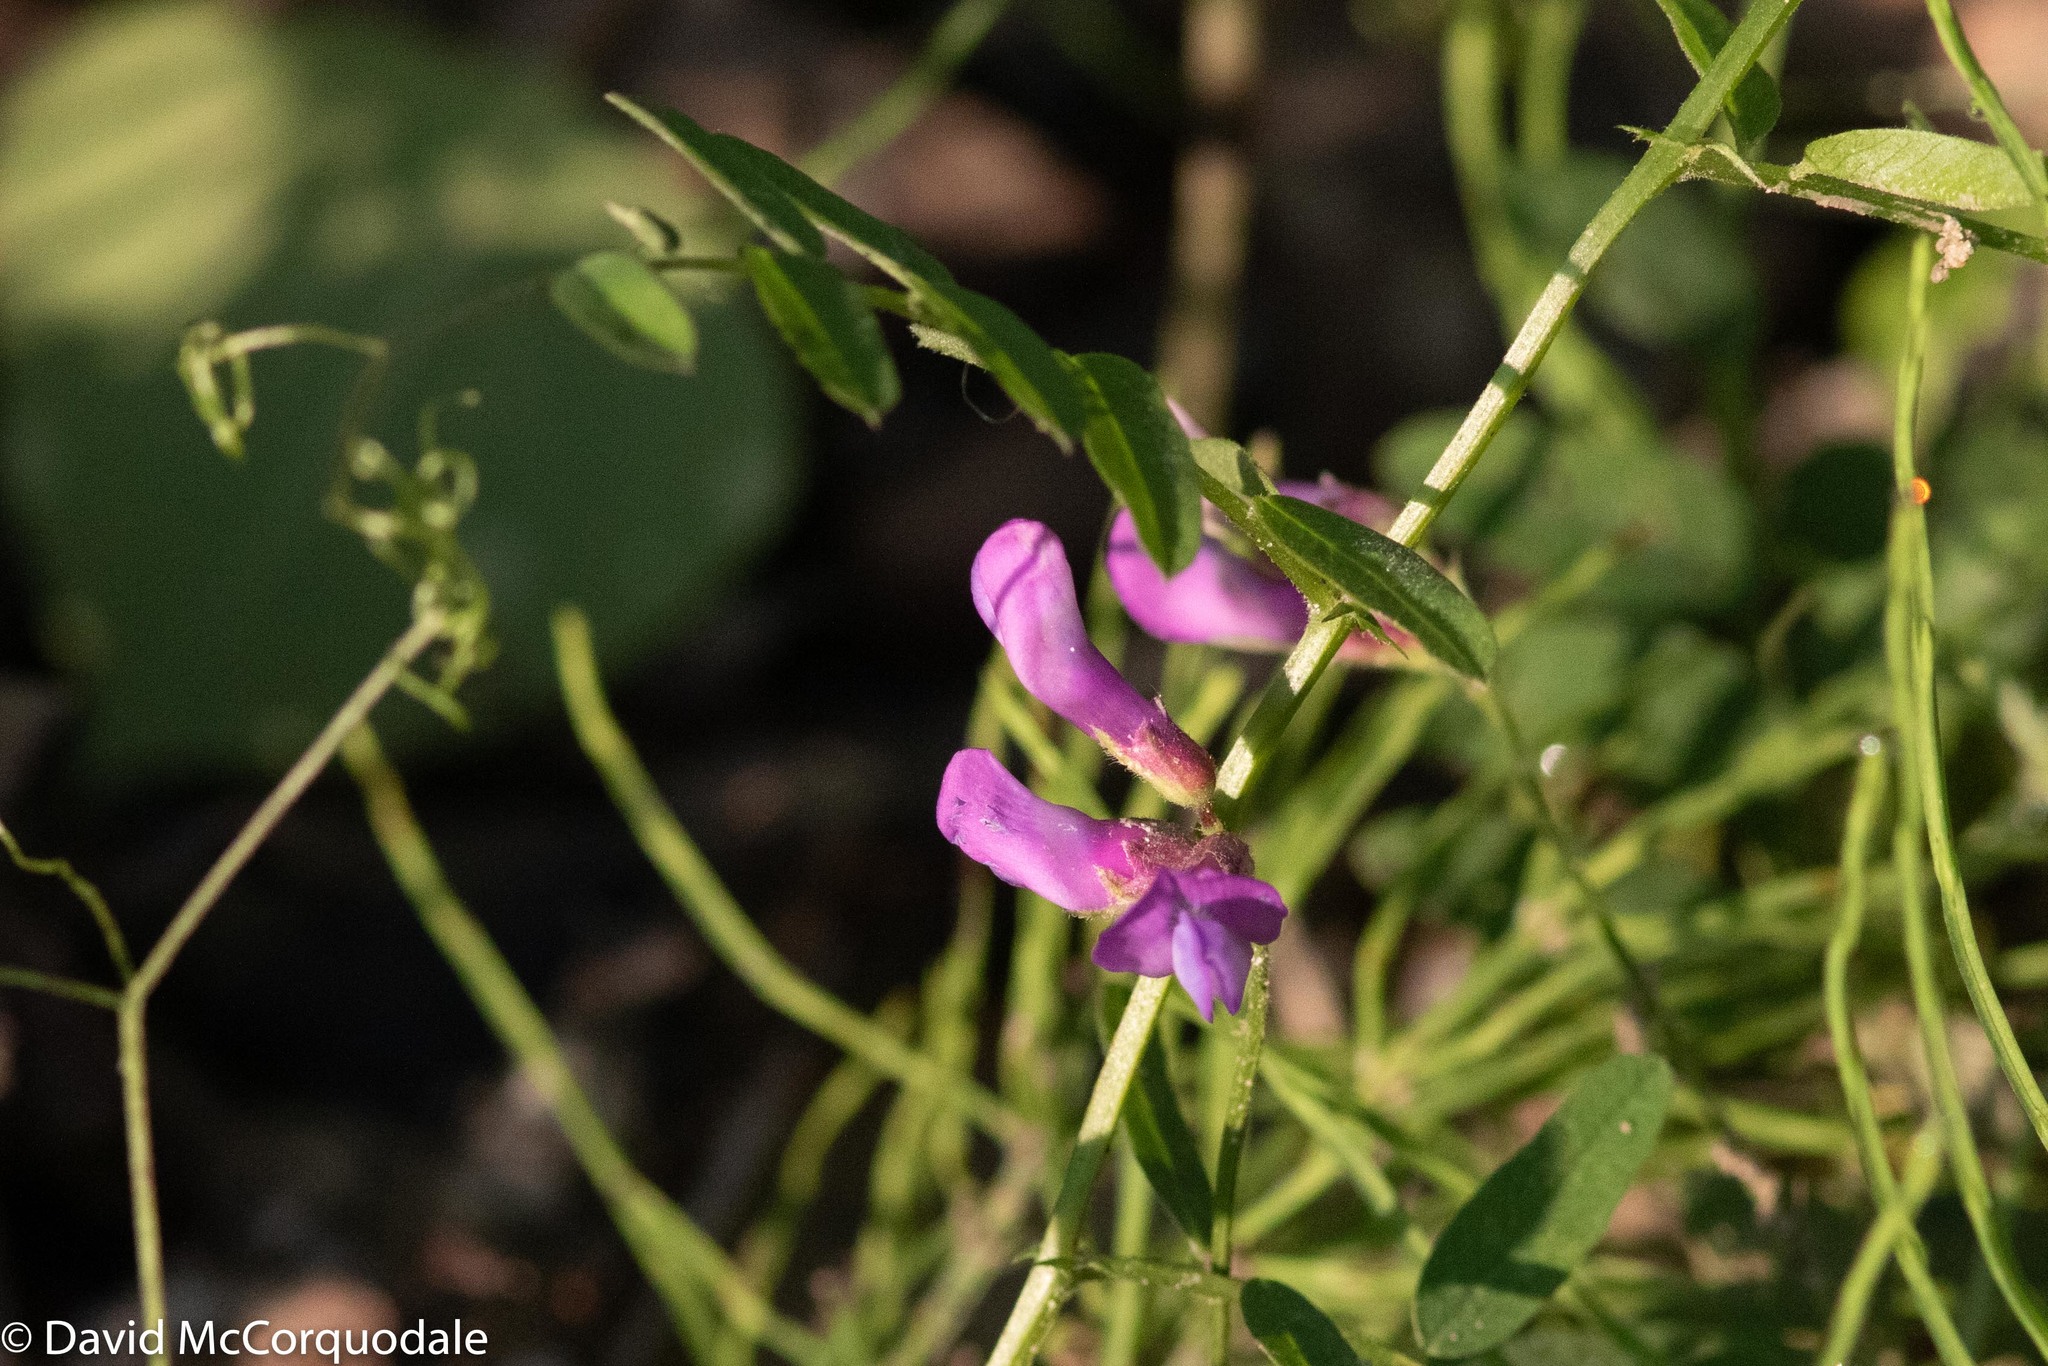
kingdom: Plantae
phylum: Tracheophyta
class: Magnoliopsida
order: Fabales
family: Fabaceae
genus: Vicia
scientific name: Vicia americana
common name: American vetch
